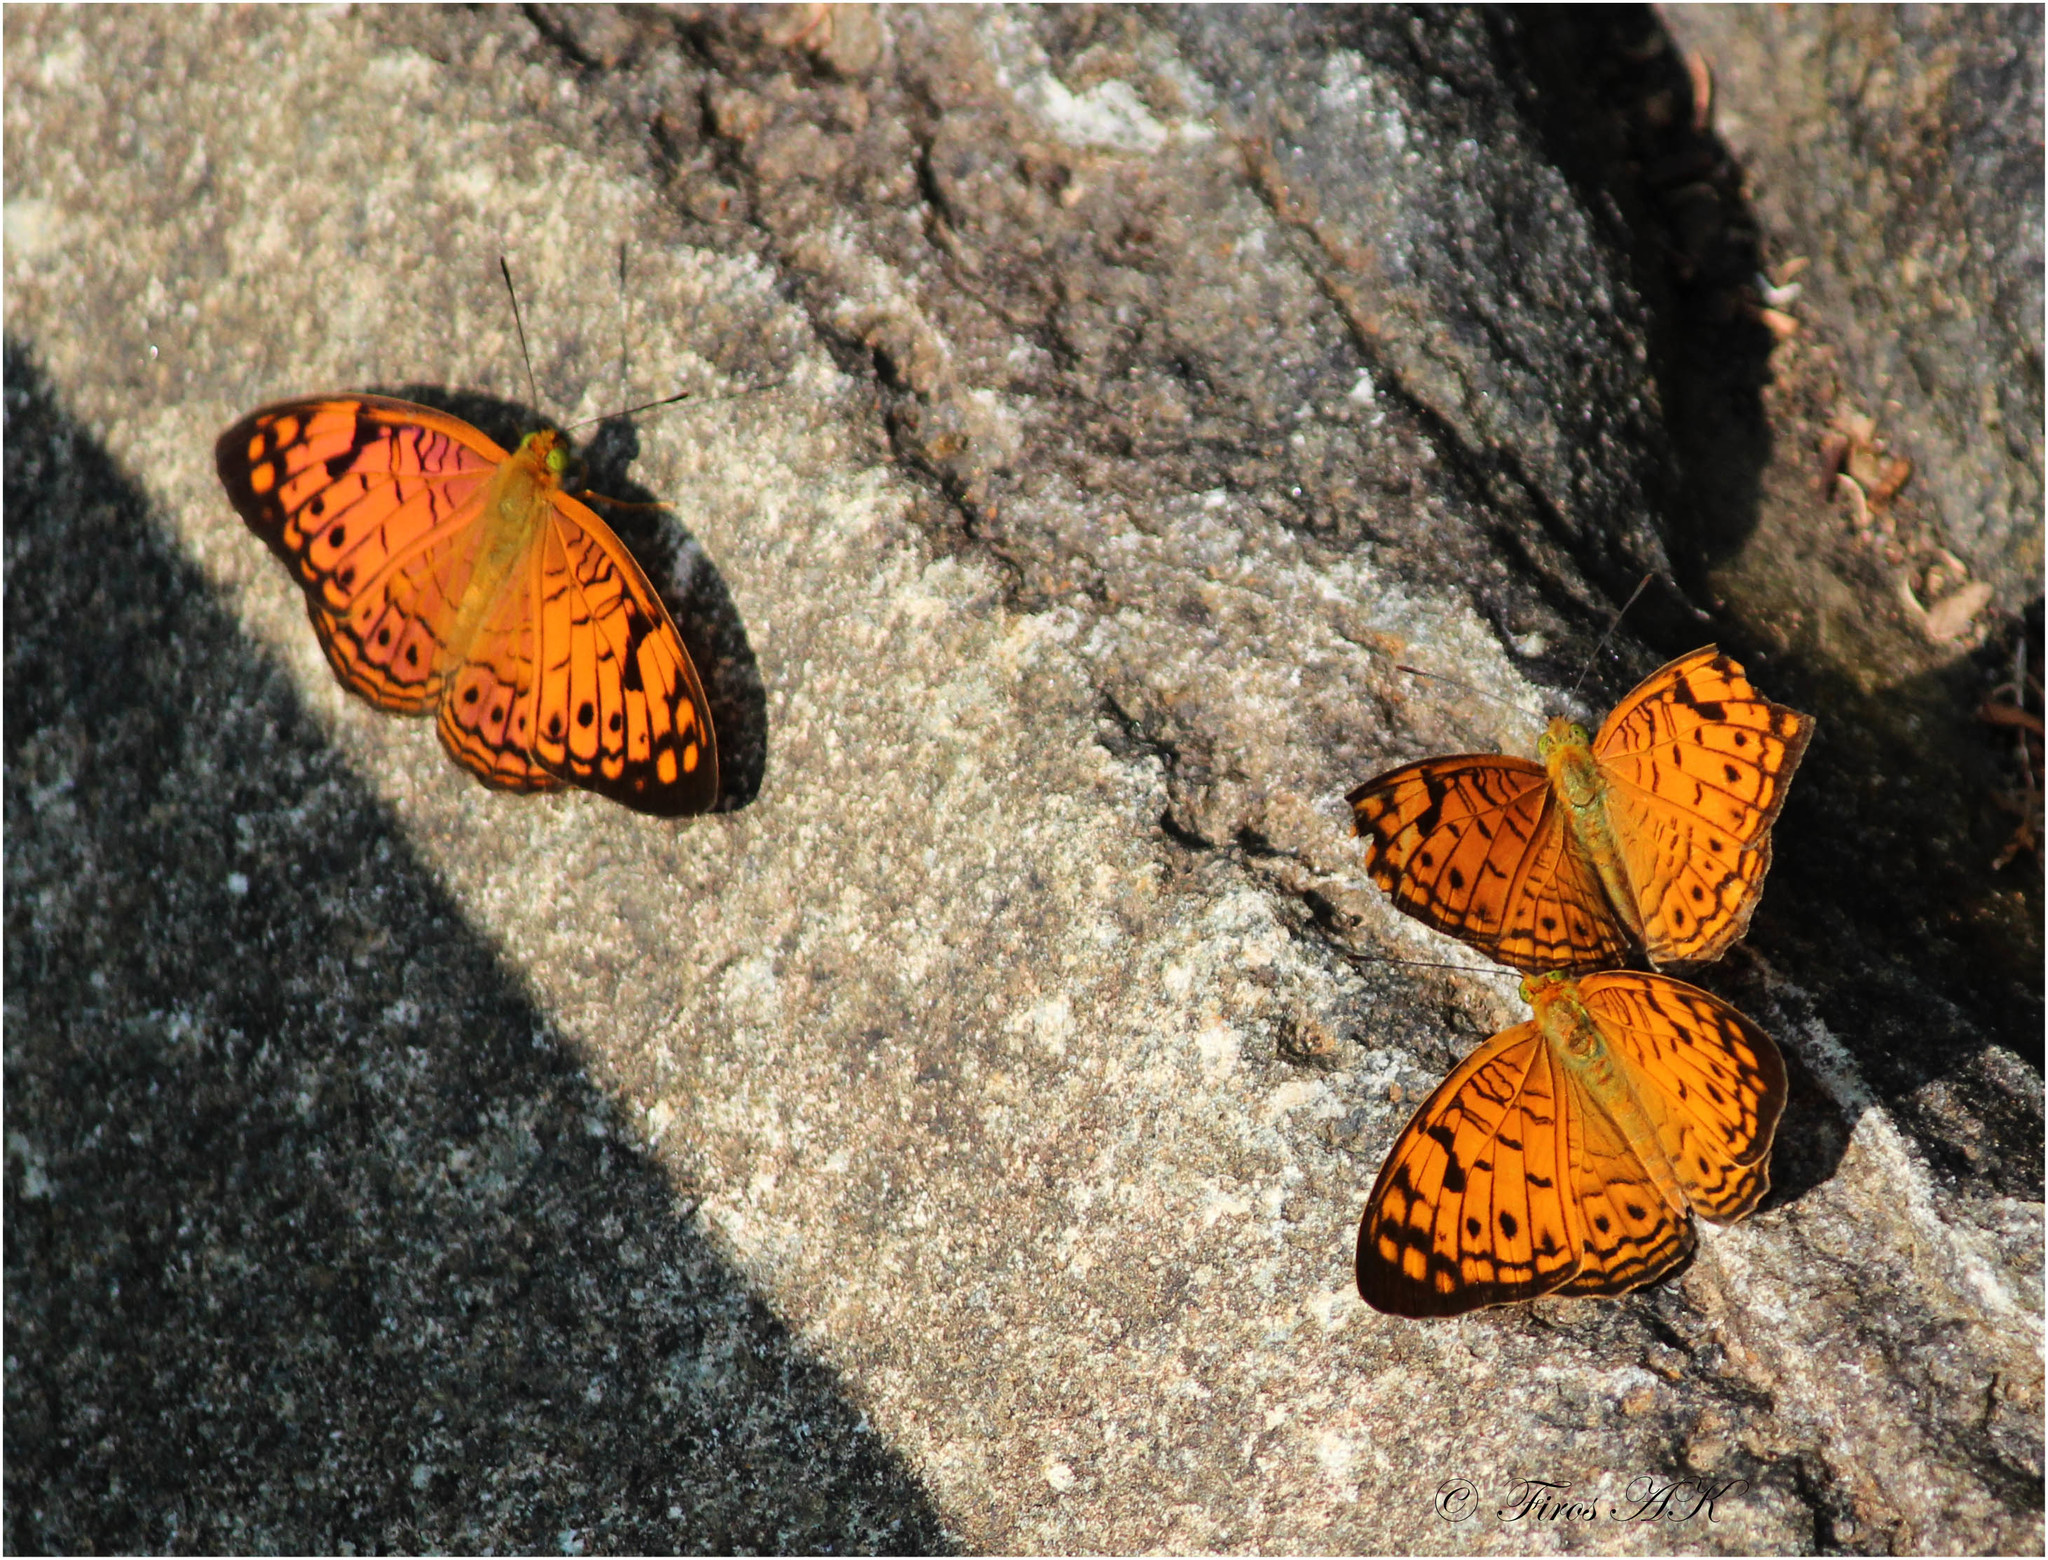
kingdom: Animalia
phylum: Arthropoda
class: Insecta
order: Lepidoptera
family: Nymphalidae
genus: Phalanta
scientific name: Phalanta alcippe
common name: Small leopard
